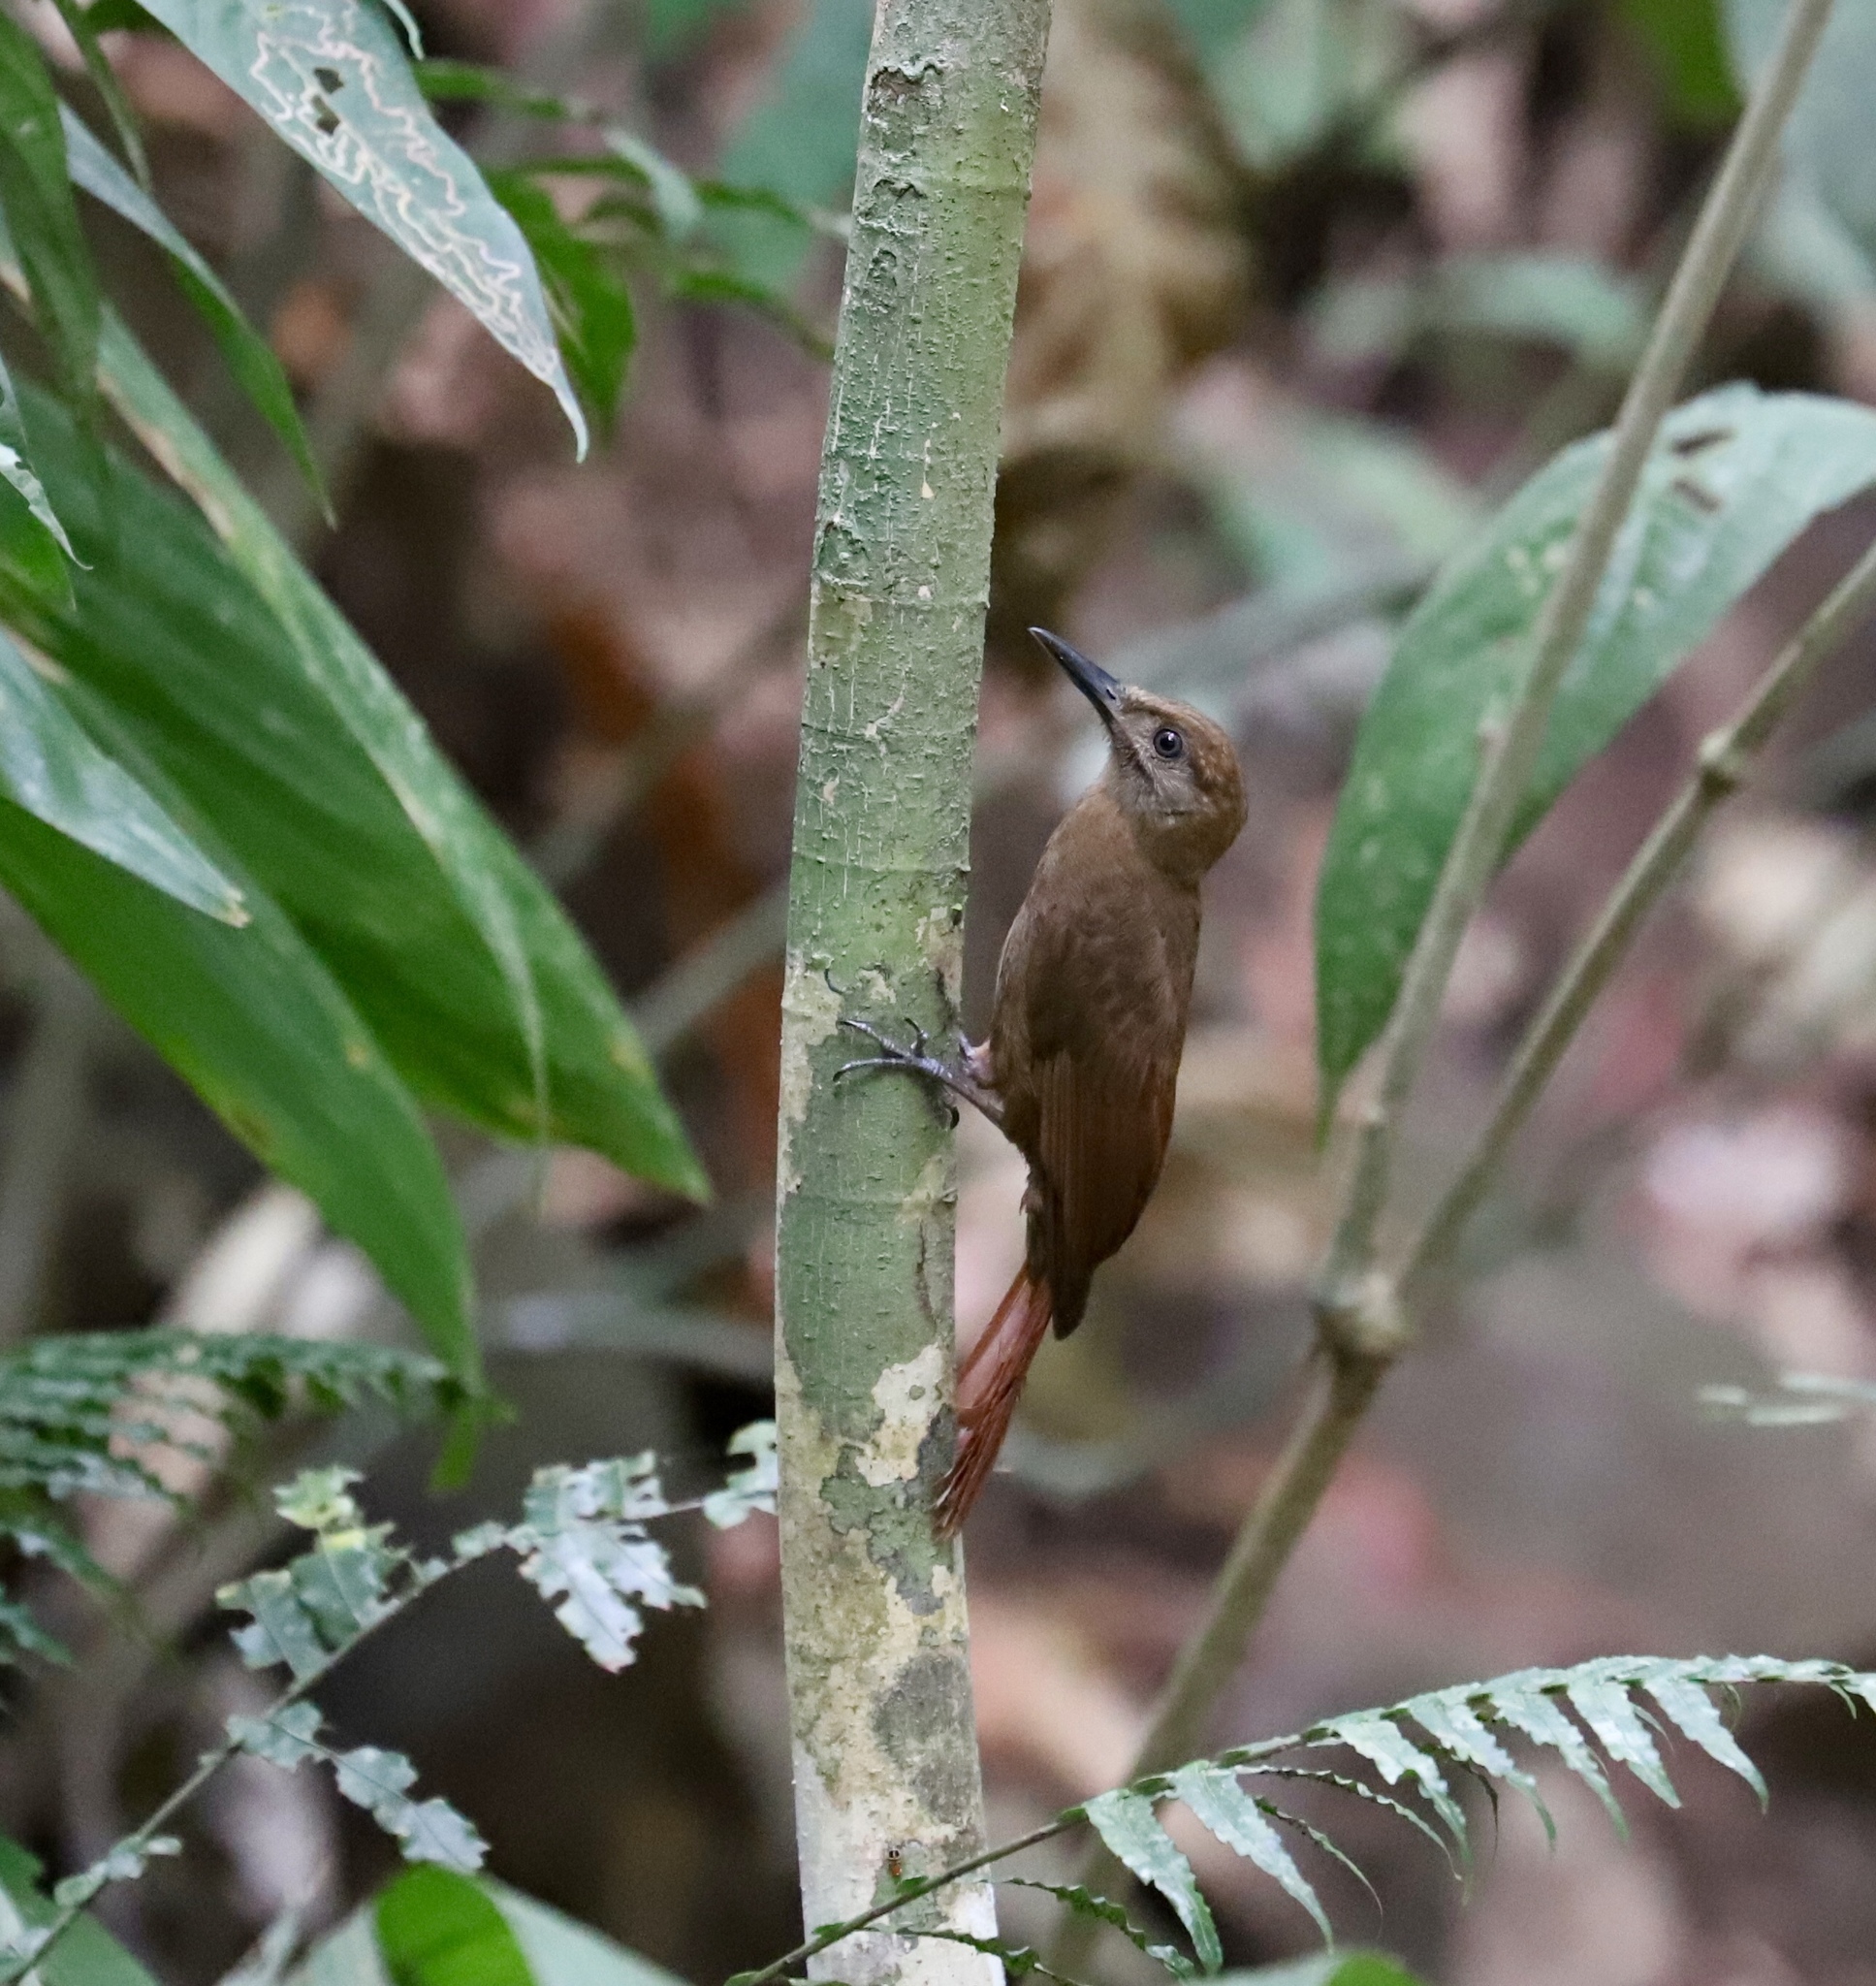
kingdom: Animalia
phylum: Chordata
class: Aves
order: Passeriformes
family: Furnariidae
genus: Dendrocincla
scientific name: Dendrocincla fuliginosa
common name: Plain-brown woodcreeper
